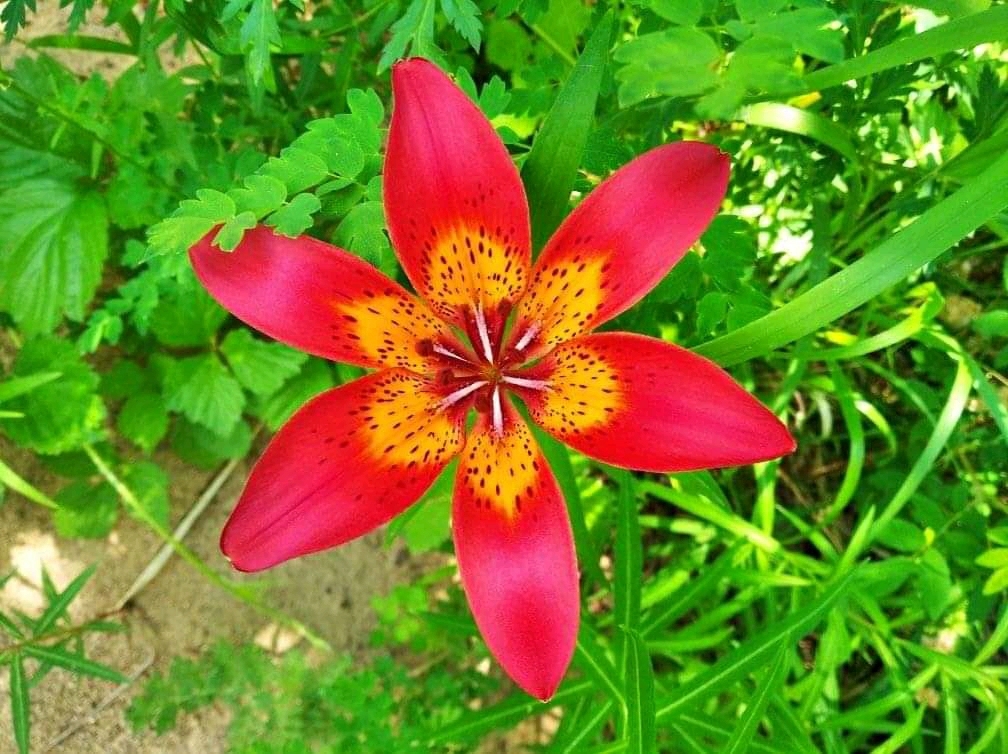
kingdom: Plantae
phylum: Tracheophyta
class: Liliopsida
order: Liliales
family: Liliaceae
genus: Lilium
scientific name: Lilium pensylvanicum
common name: Candlestick lily
